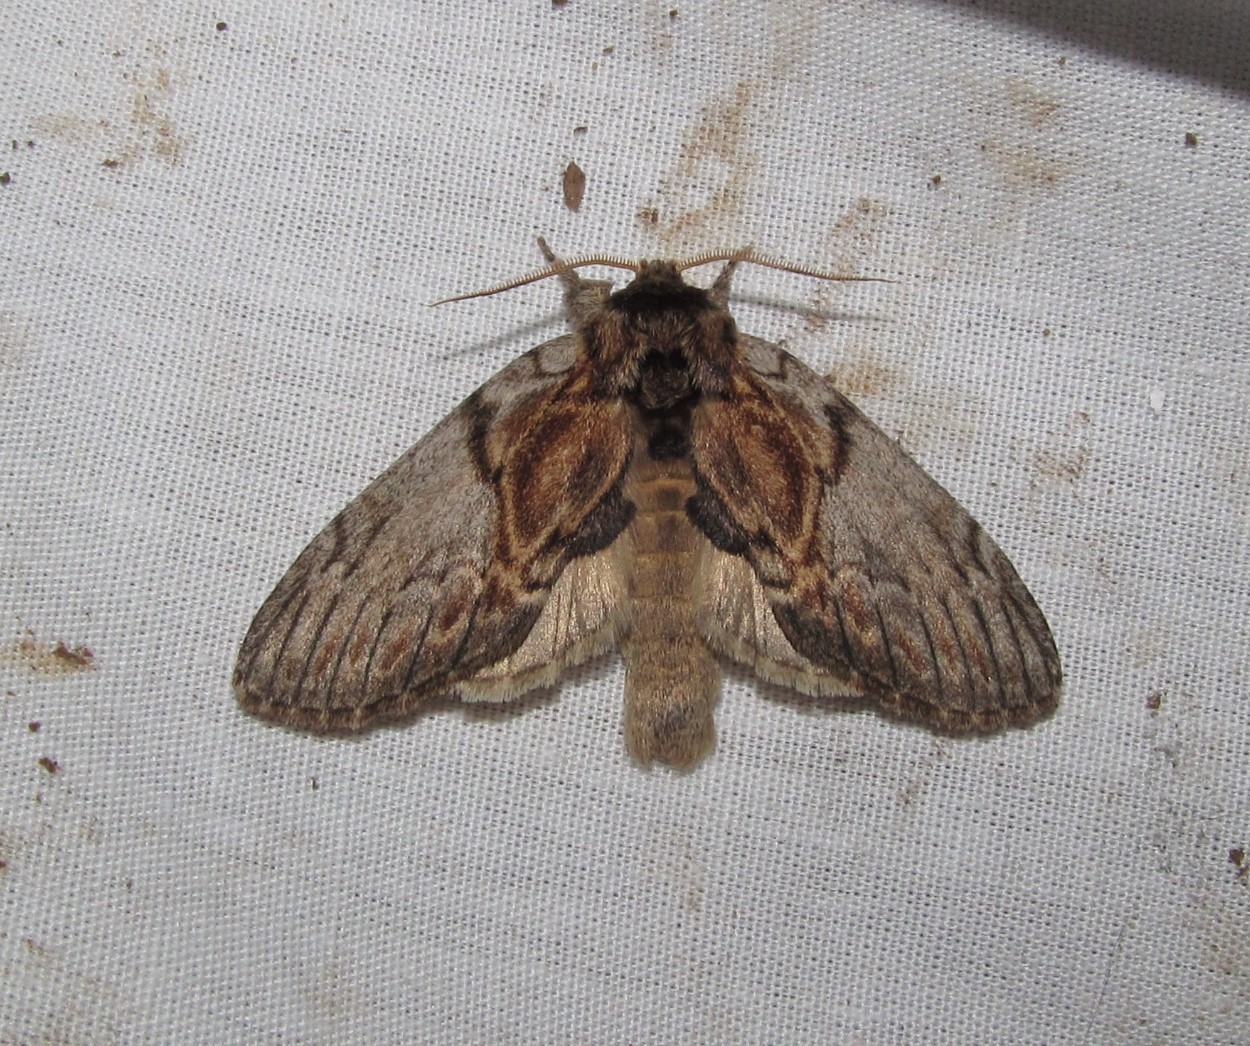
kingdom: Animalia
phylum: Arthropoda
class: Insecta
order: Lepidoptera
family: Notodontidae
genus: Peridea
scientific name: Peridea basitriens
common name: Oval-based prominent
